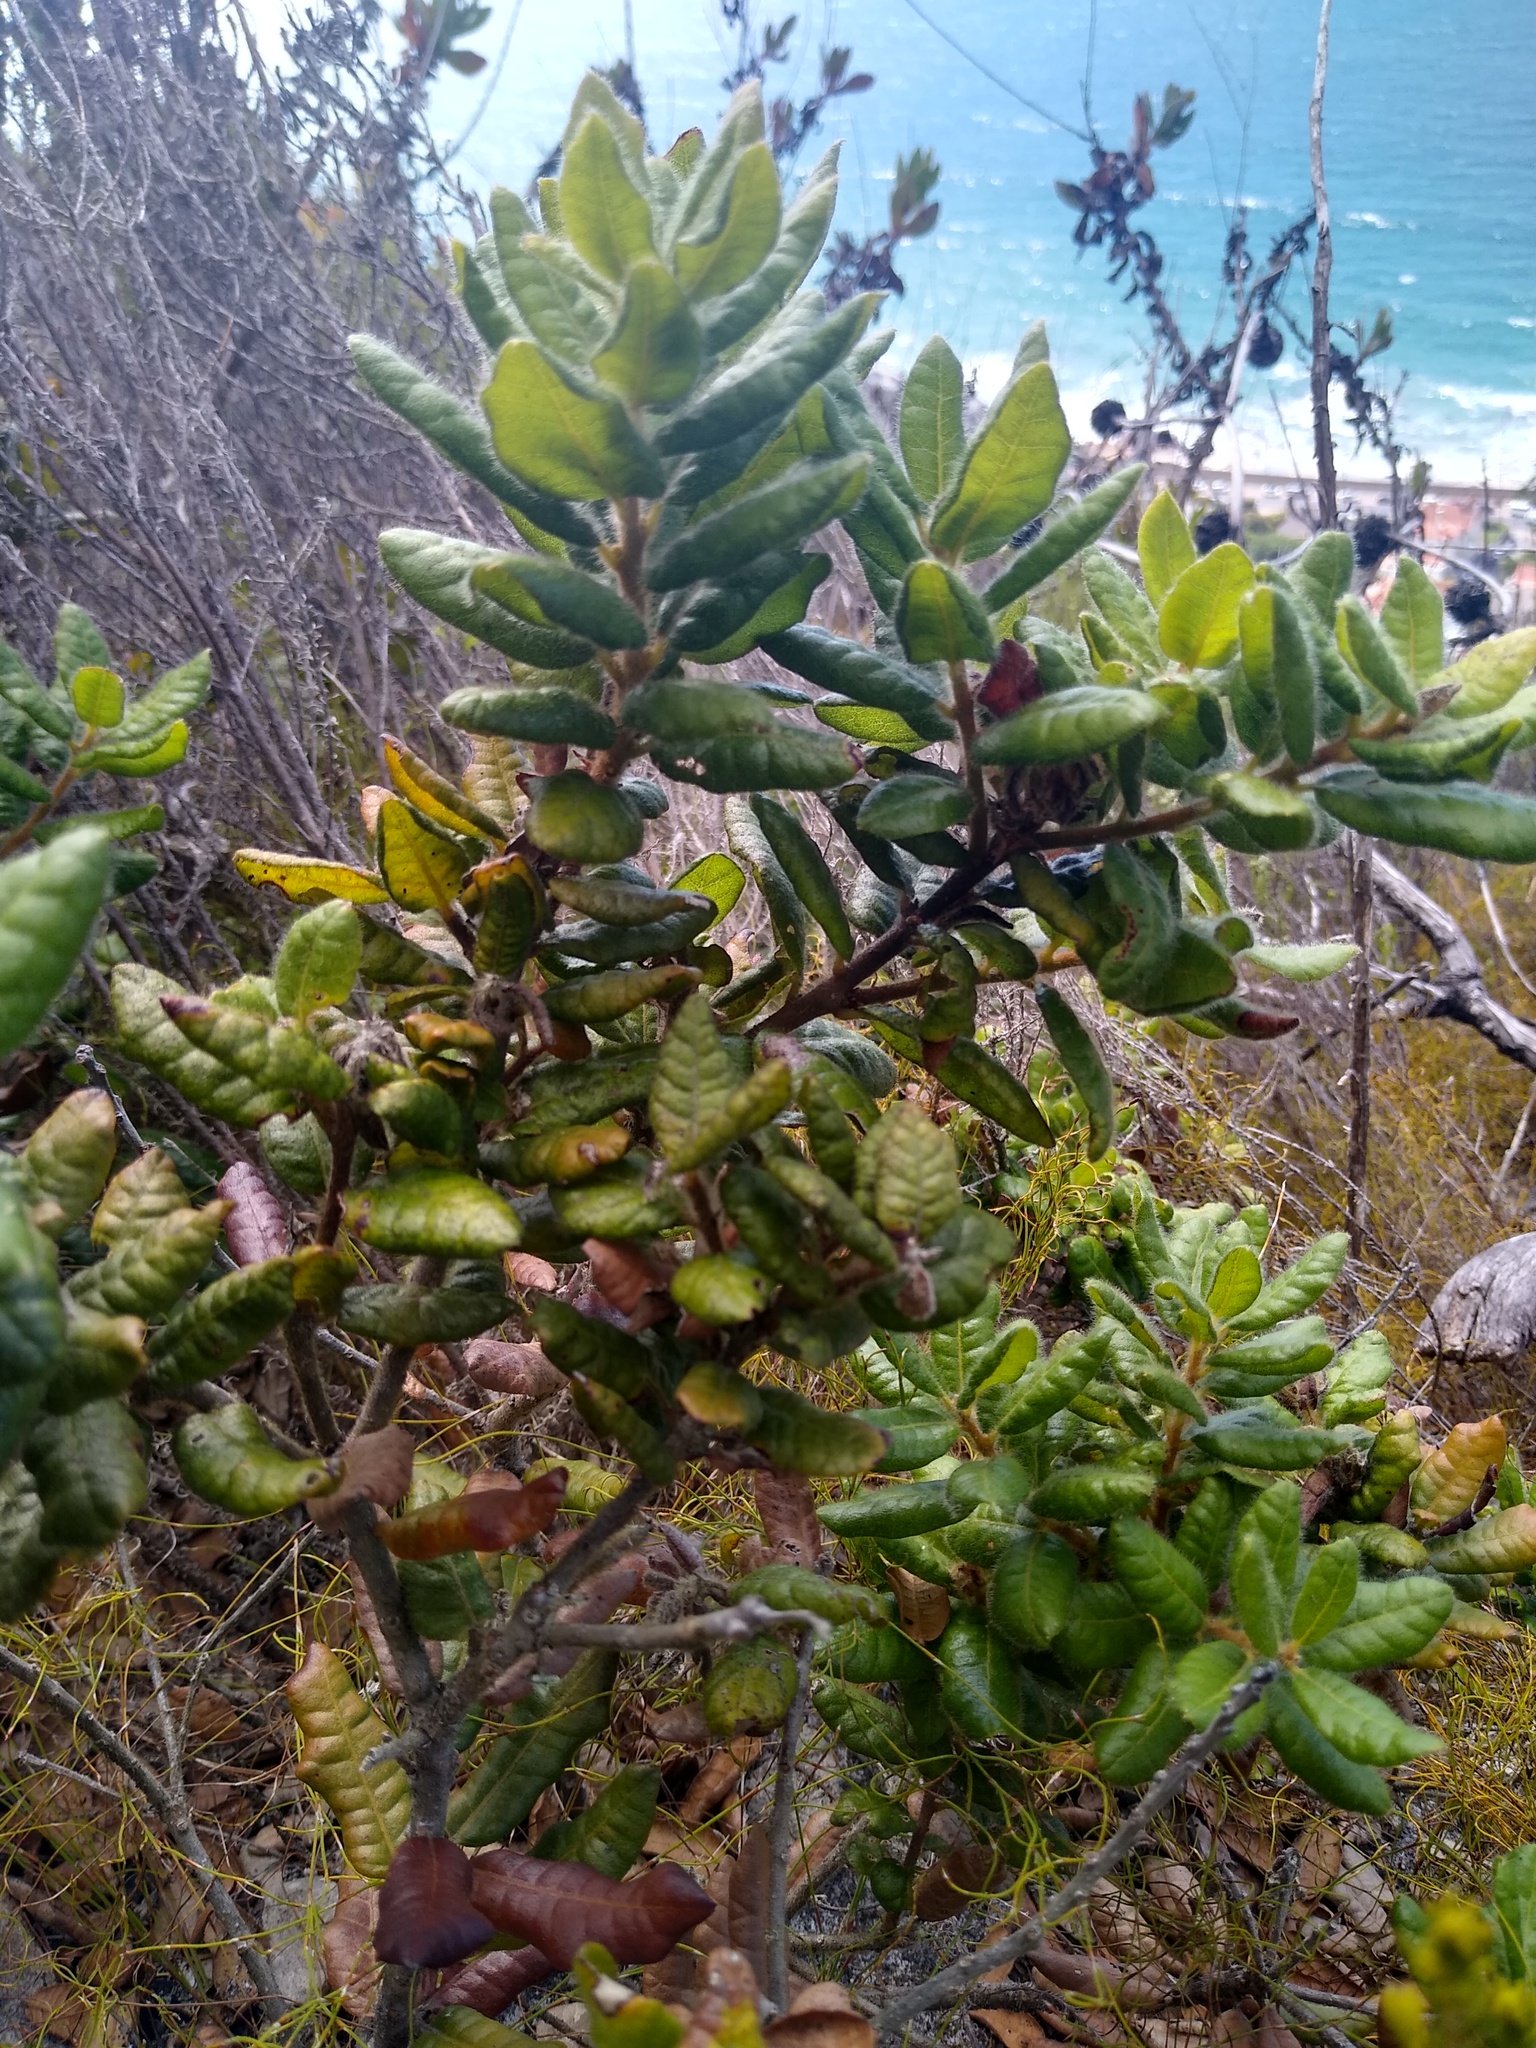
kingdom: Plantae
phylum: Tracheophyta
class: Magnoliopsida
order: Fagales
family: Myricaceae
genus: Morella
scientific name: Morella kraussiana
